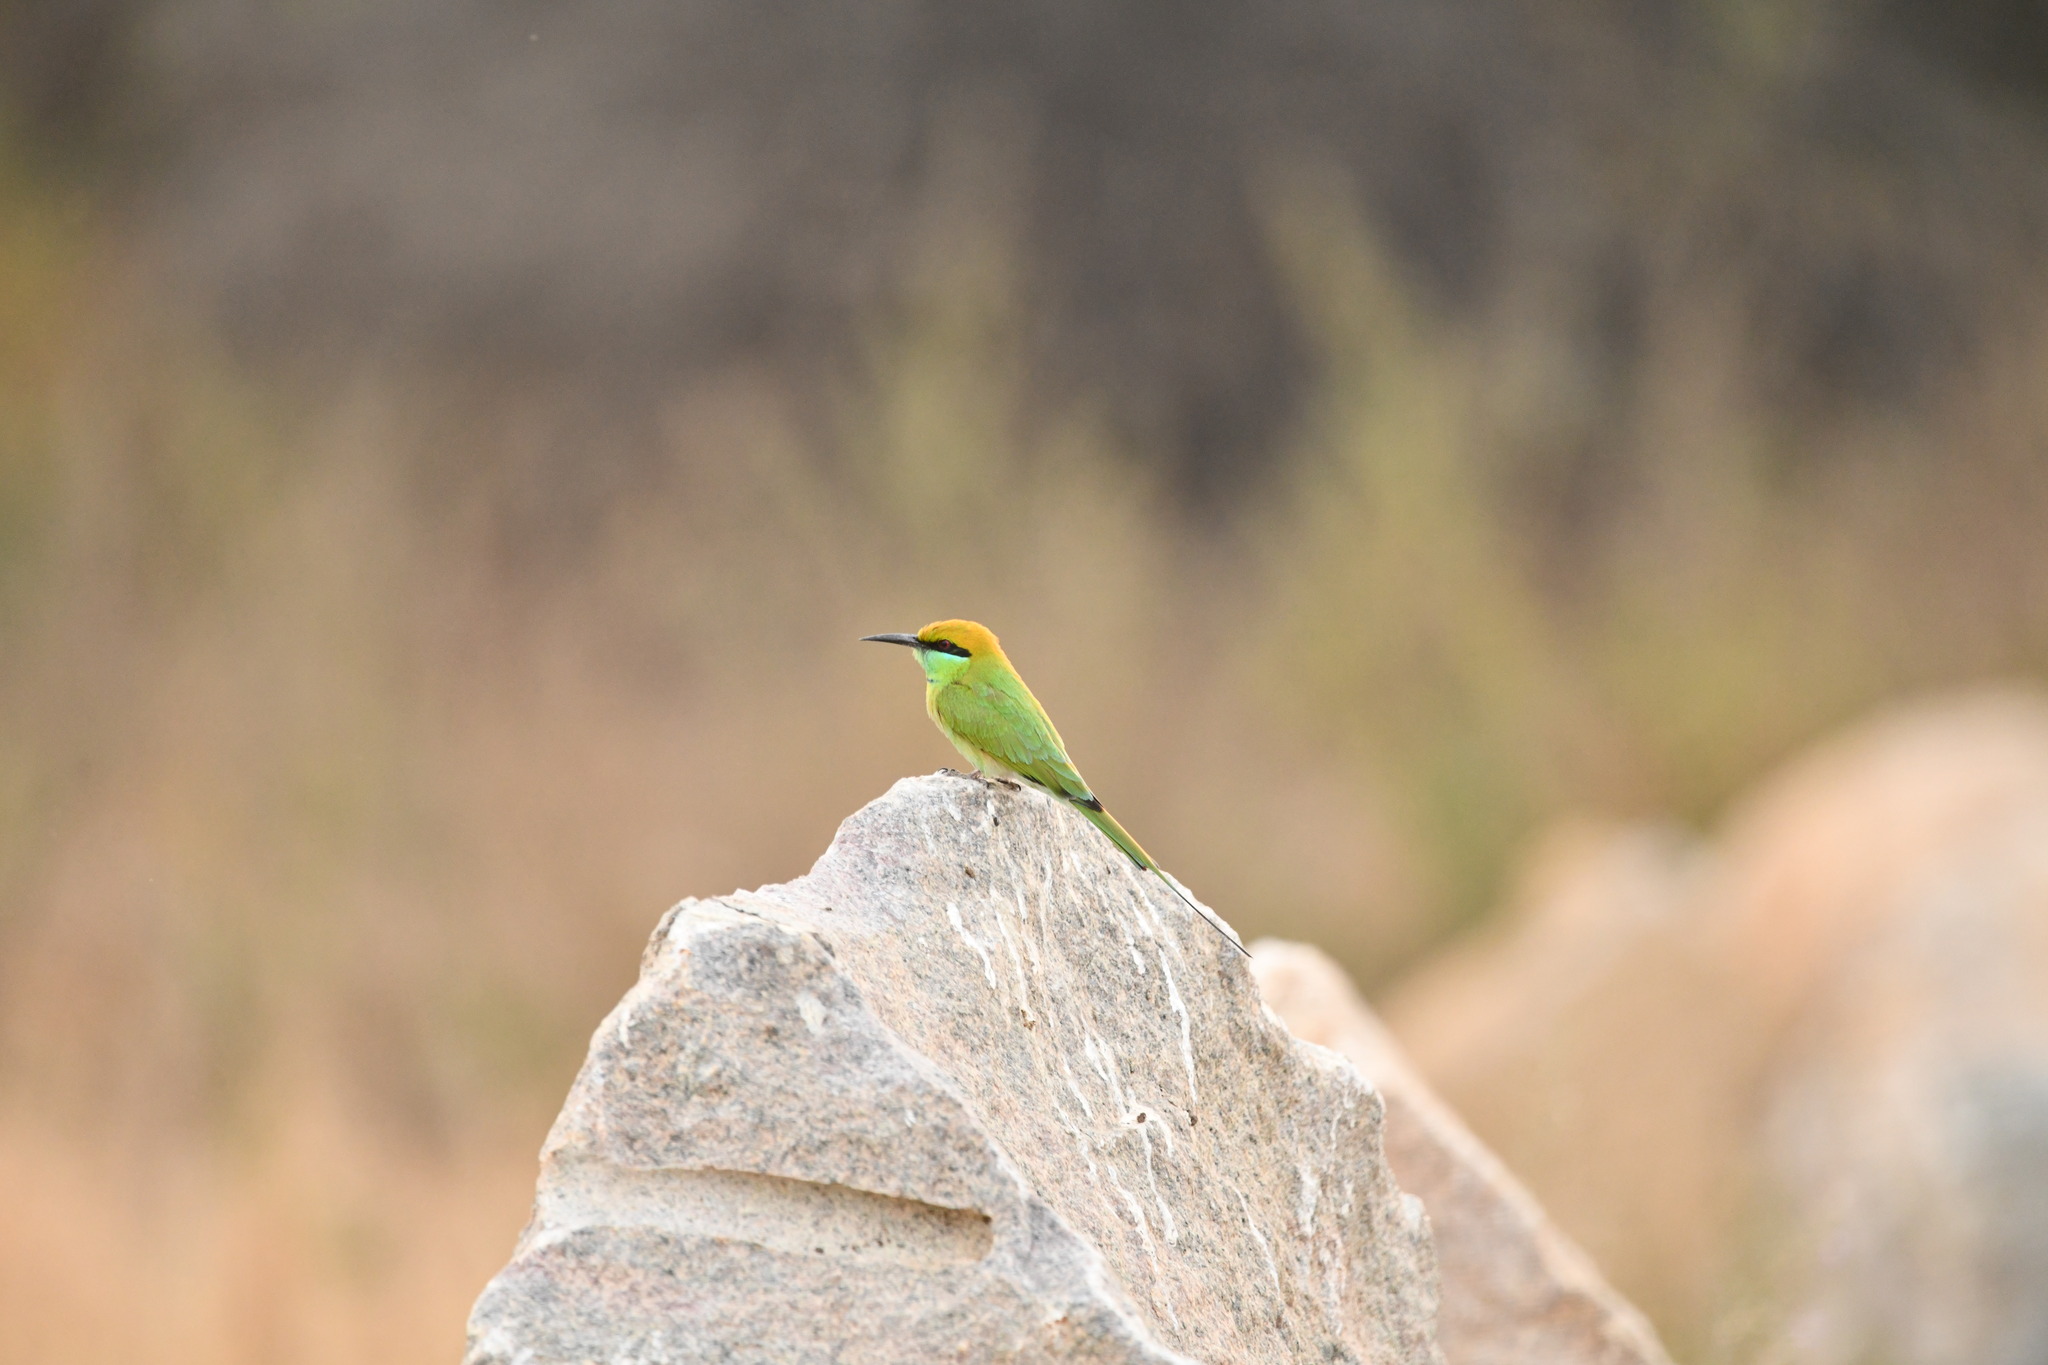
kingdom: Animalia
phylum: Chordata
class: Aves
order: Coraciiformes
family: Meropidae
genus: Merops
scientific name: Merops orientalis
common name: Green bee-eater
